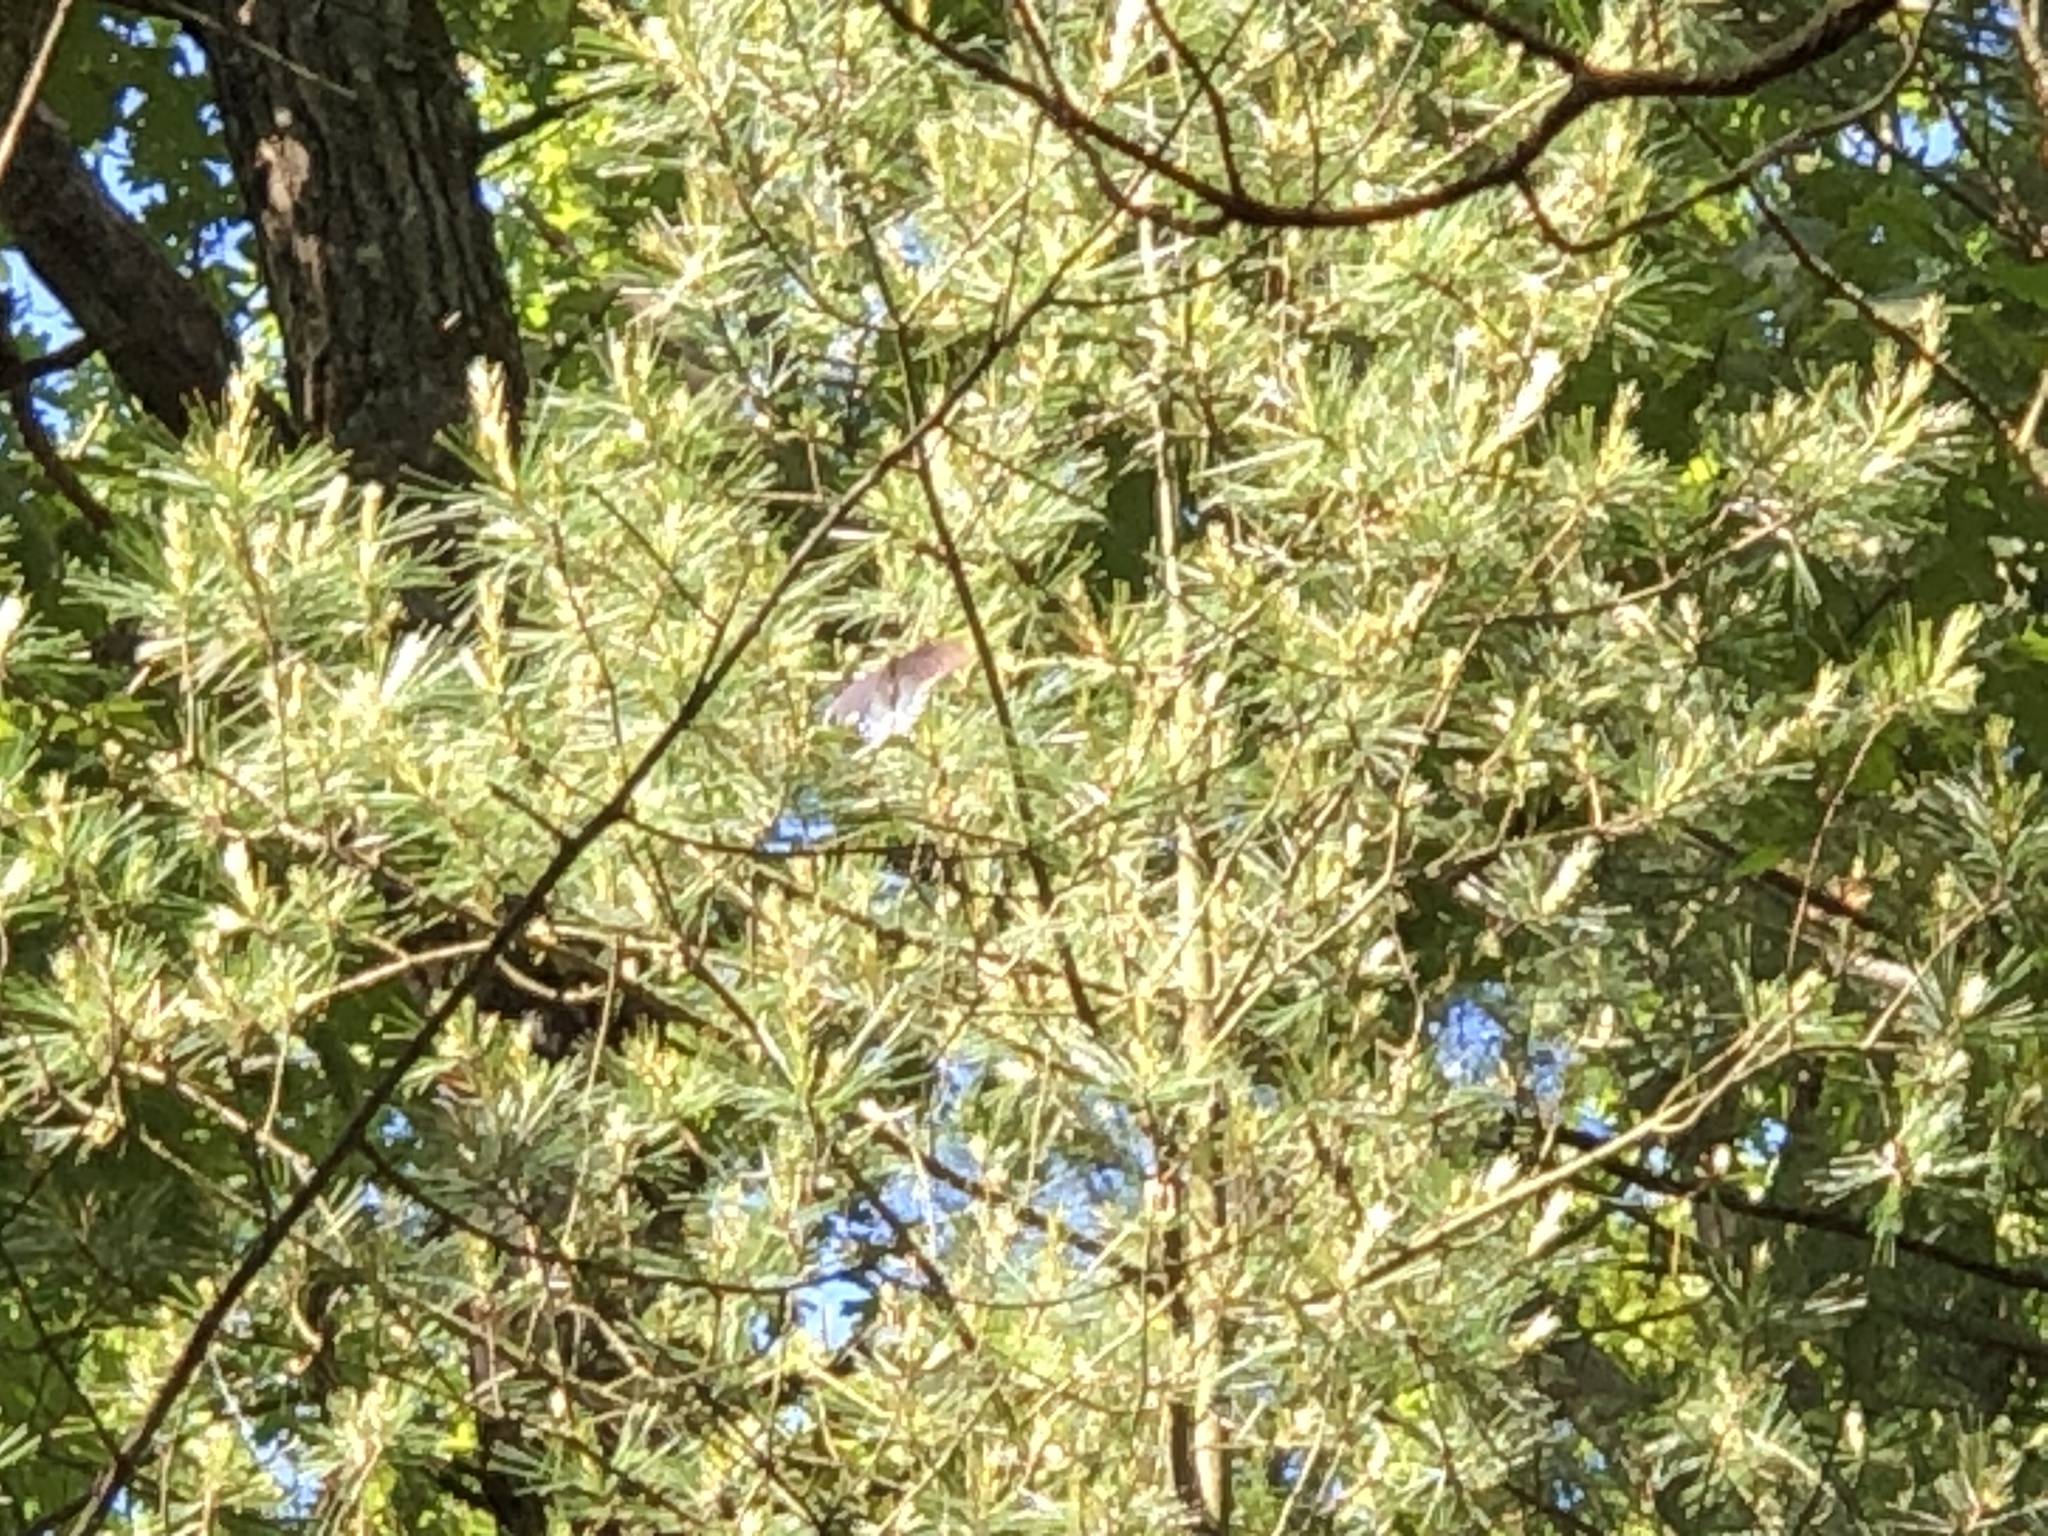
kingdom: Animalia
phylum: Arthropoda
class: Insecta
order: Lepidoptera
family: Papilionidae
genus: Papilio
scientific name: Papilio polyxenes
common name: Black swallowtail
